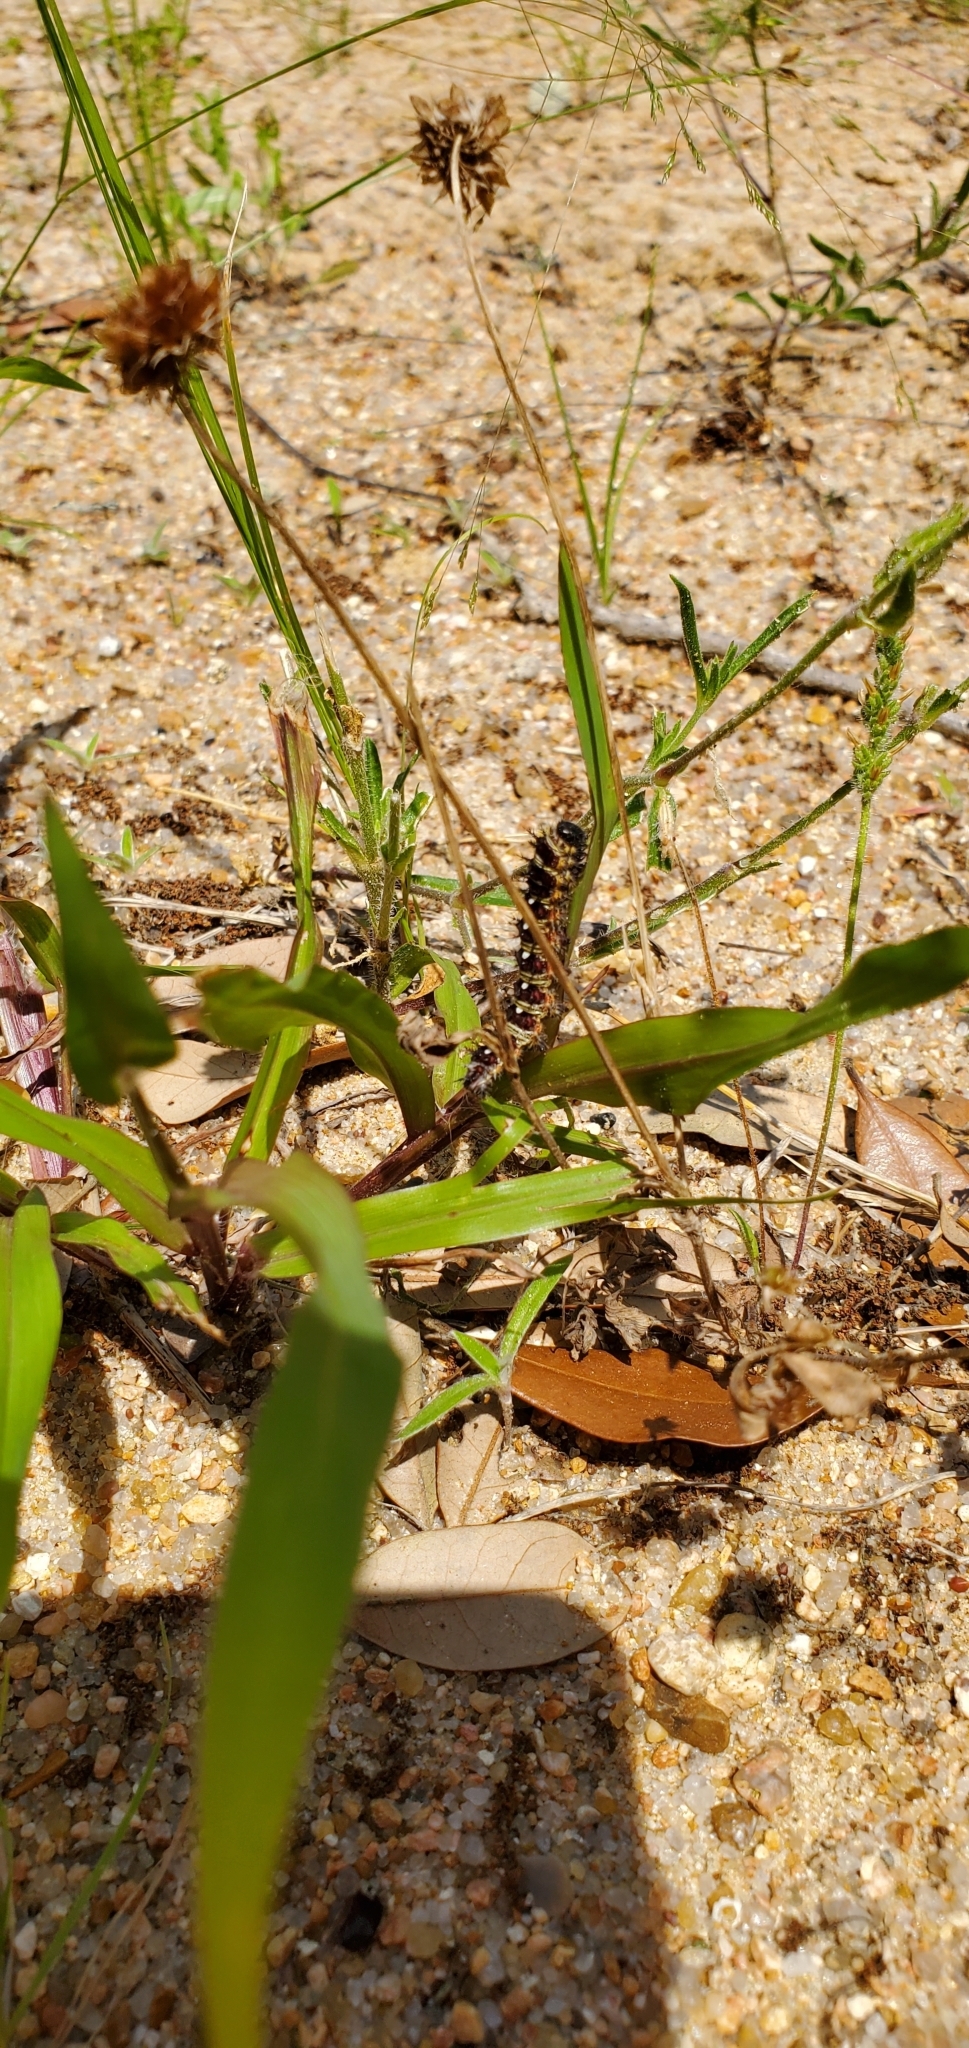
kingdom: Animalia
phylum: Arthropoda
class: Insecta
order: Lepidoptera
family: Nymphalidae
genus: Vanessa
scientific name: Vanessa virginiensis
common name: American lady
